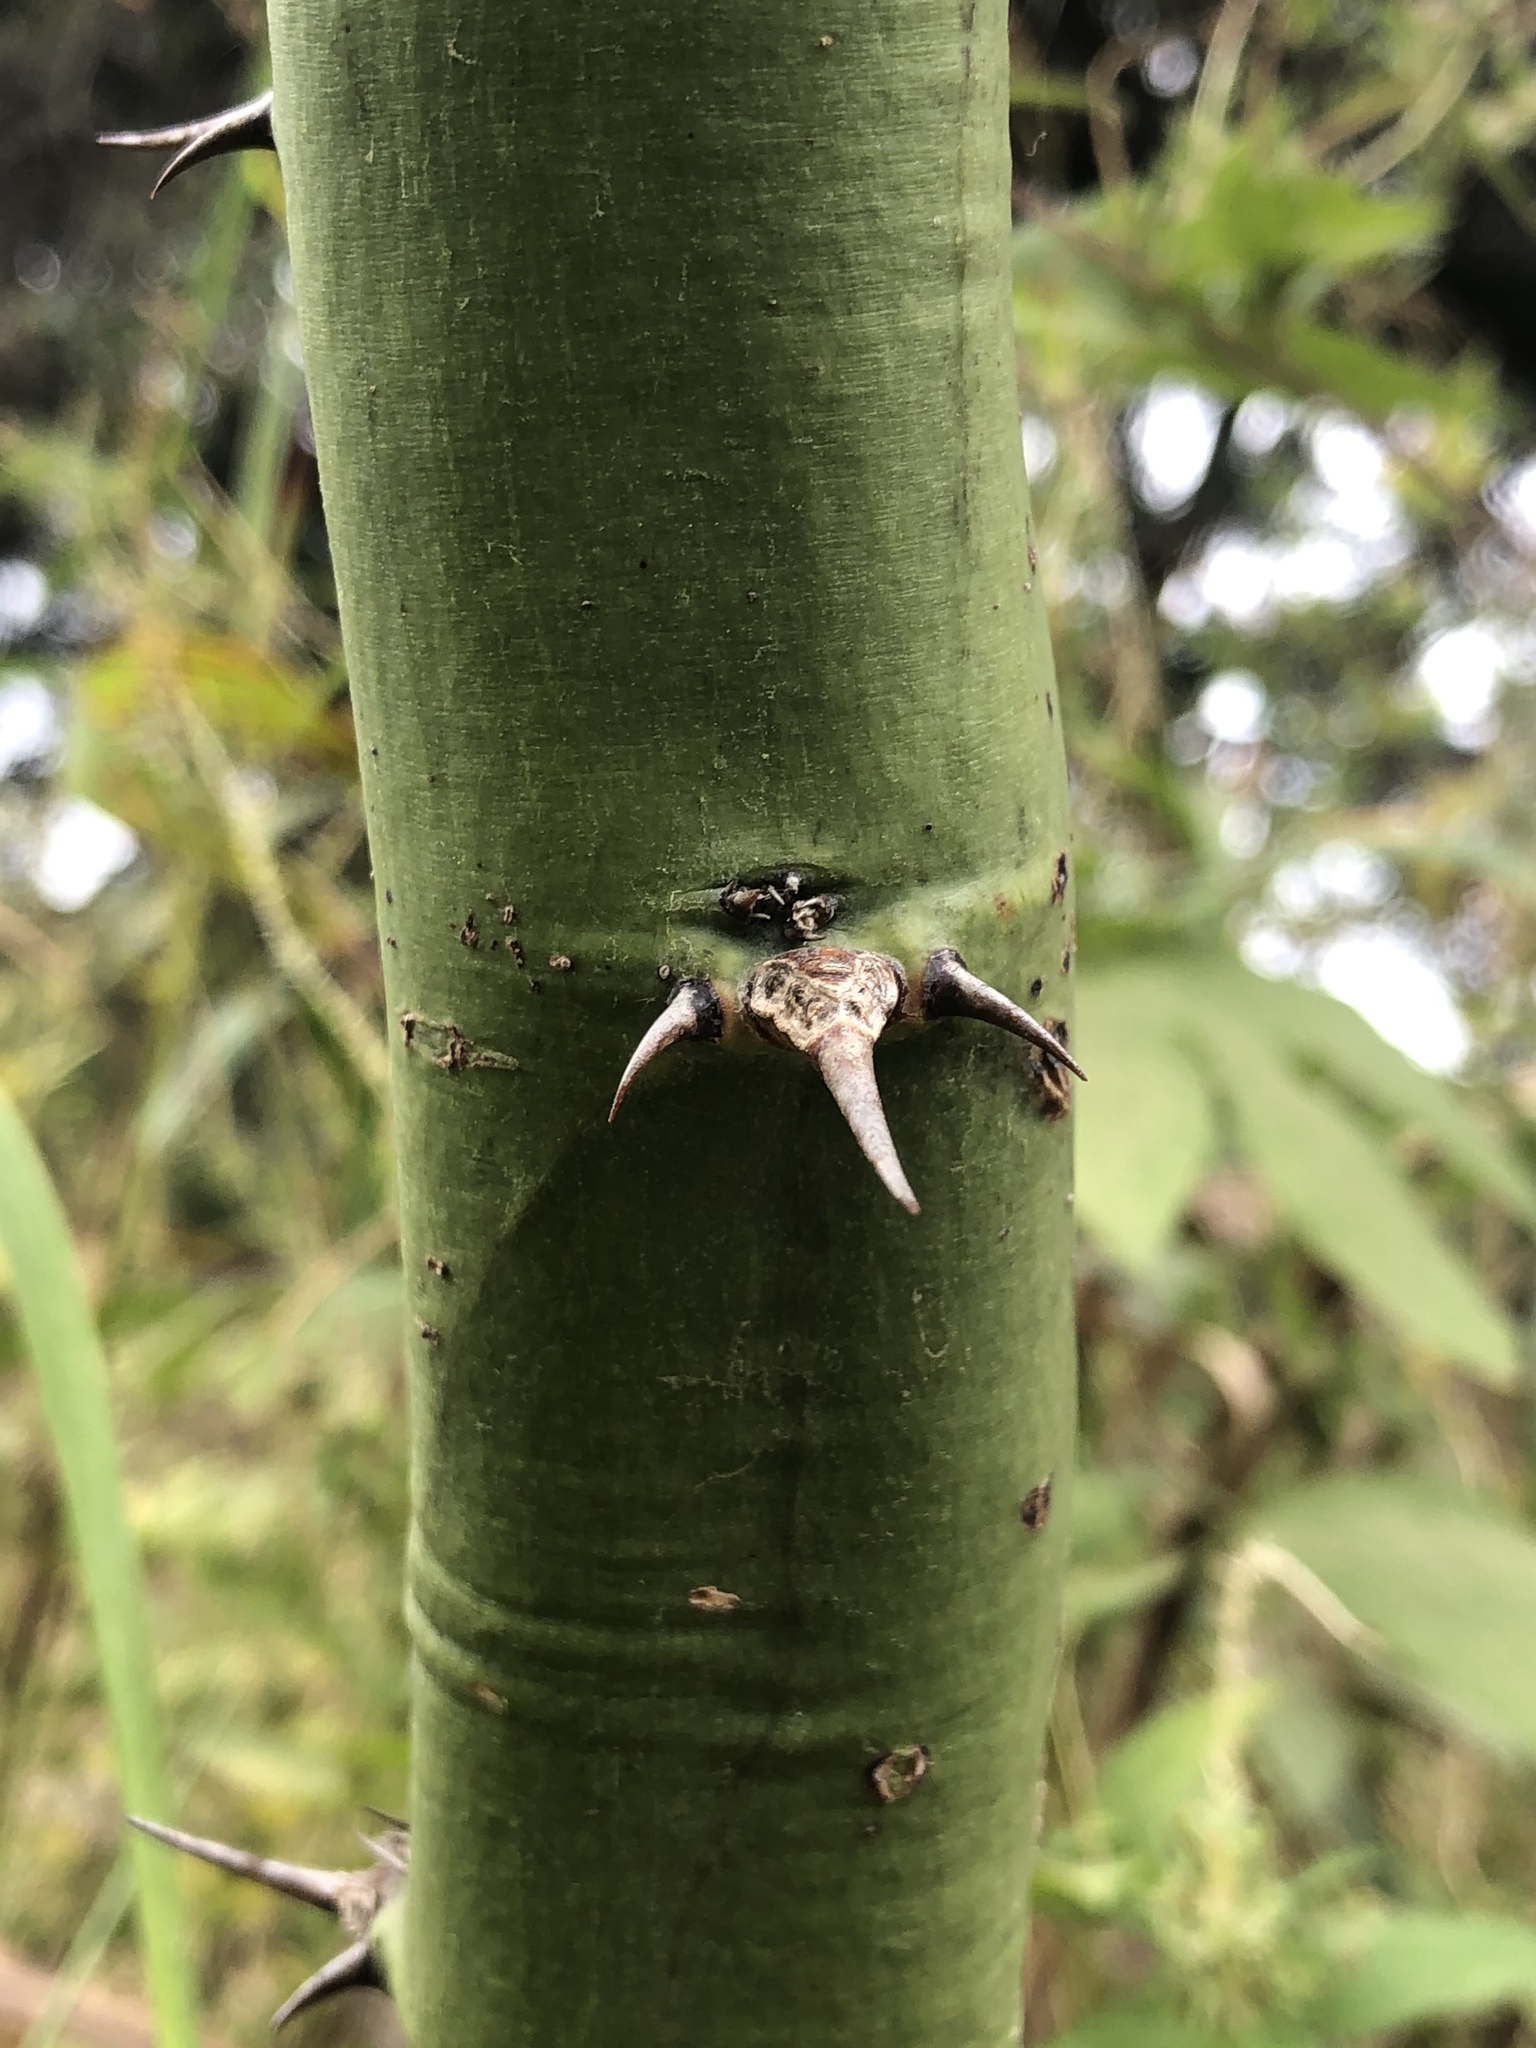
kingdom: Plantae
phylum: Tracheophyta
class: Magnoliopsida
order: Fabales
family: Fabaceae
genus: Parkinsonia
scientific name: Parkinsonia aculeata
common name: Jerusalem thorn
